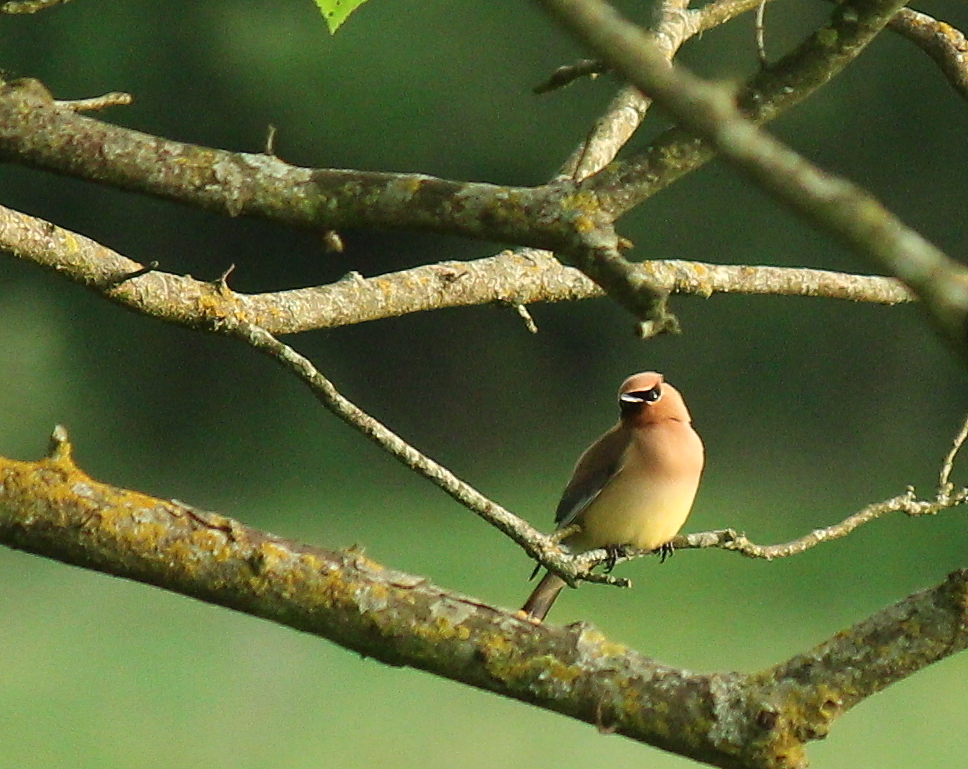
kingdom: Animalia
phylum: Chordata
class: Aves
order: Passeriformes
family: Bombycillidae
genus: Bombycilla
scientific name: Bombycilla cedrorum
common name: Cedar waxwing
